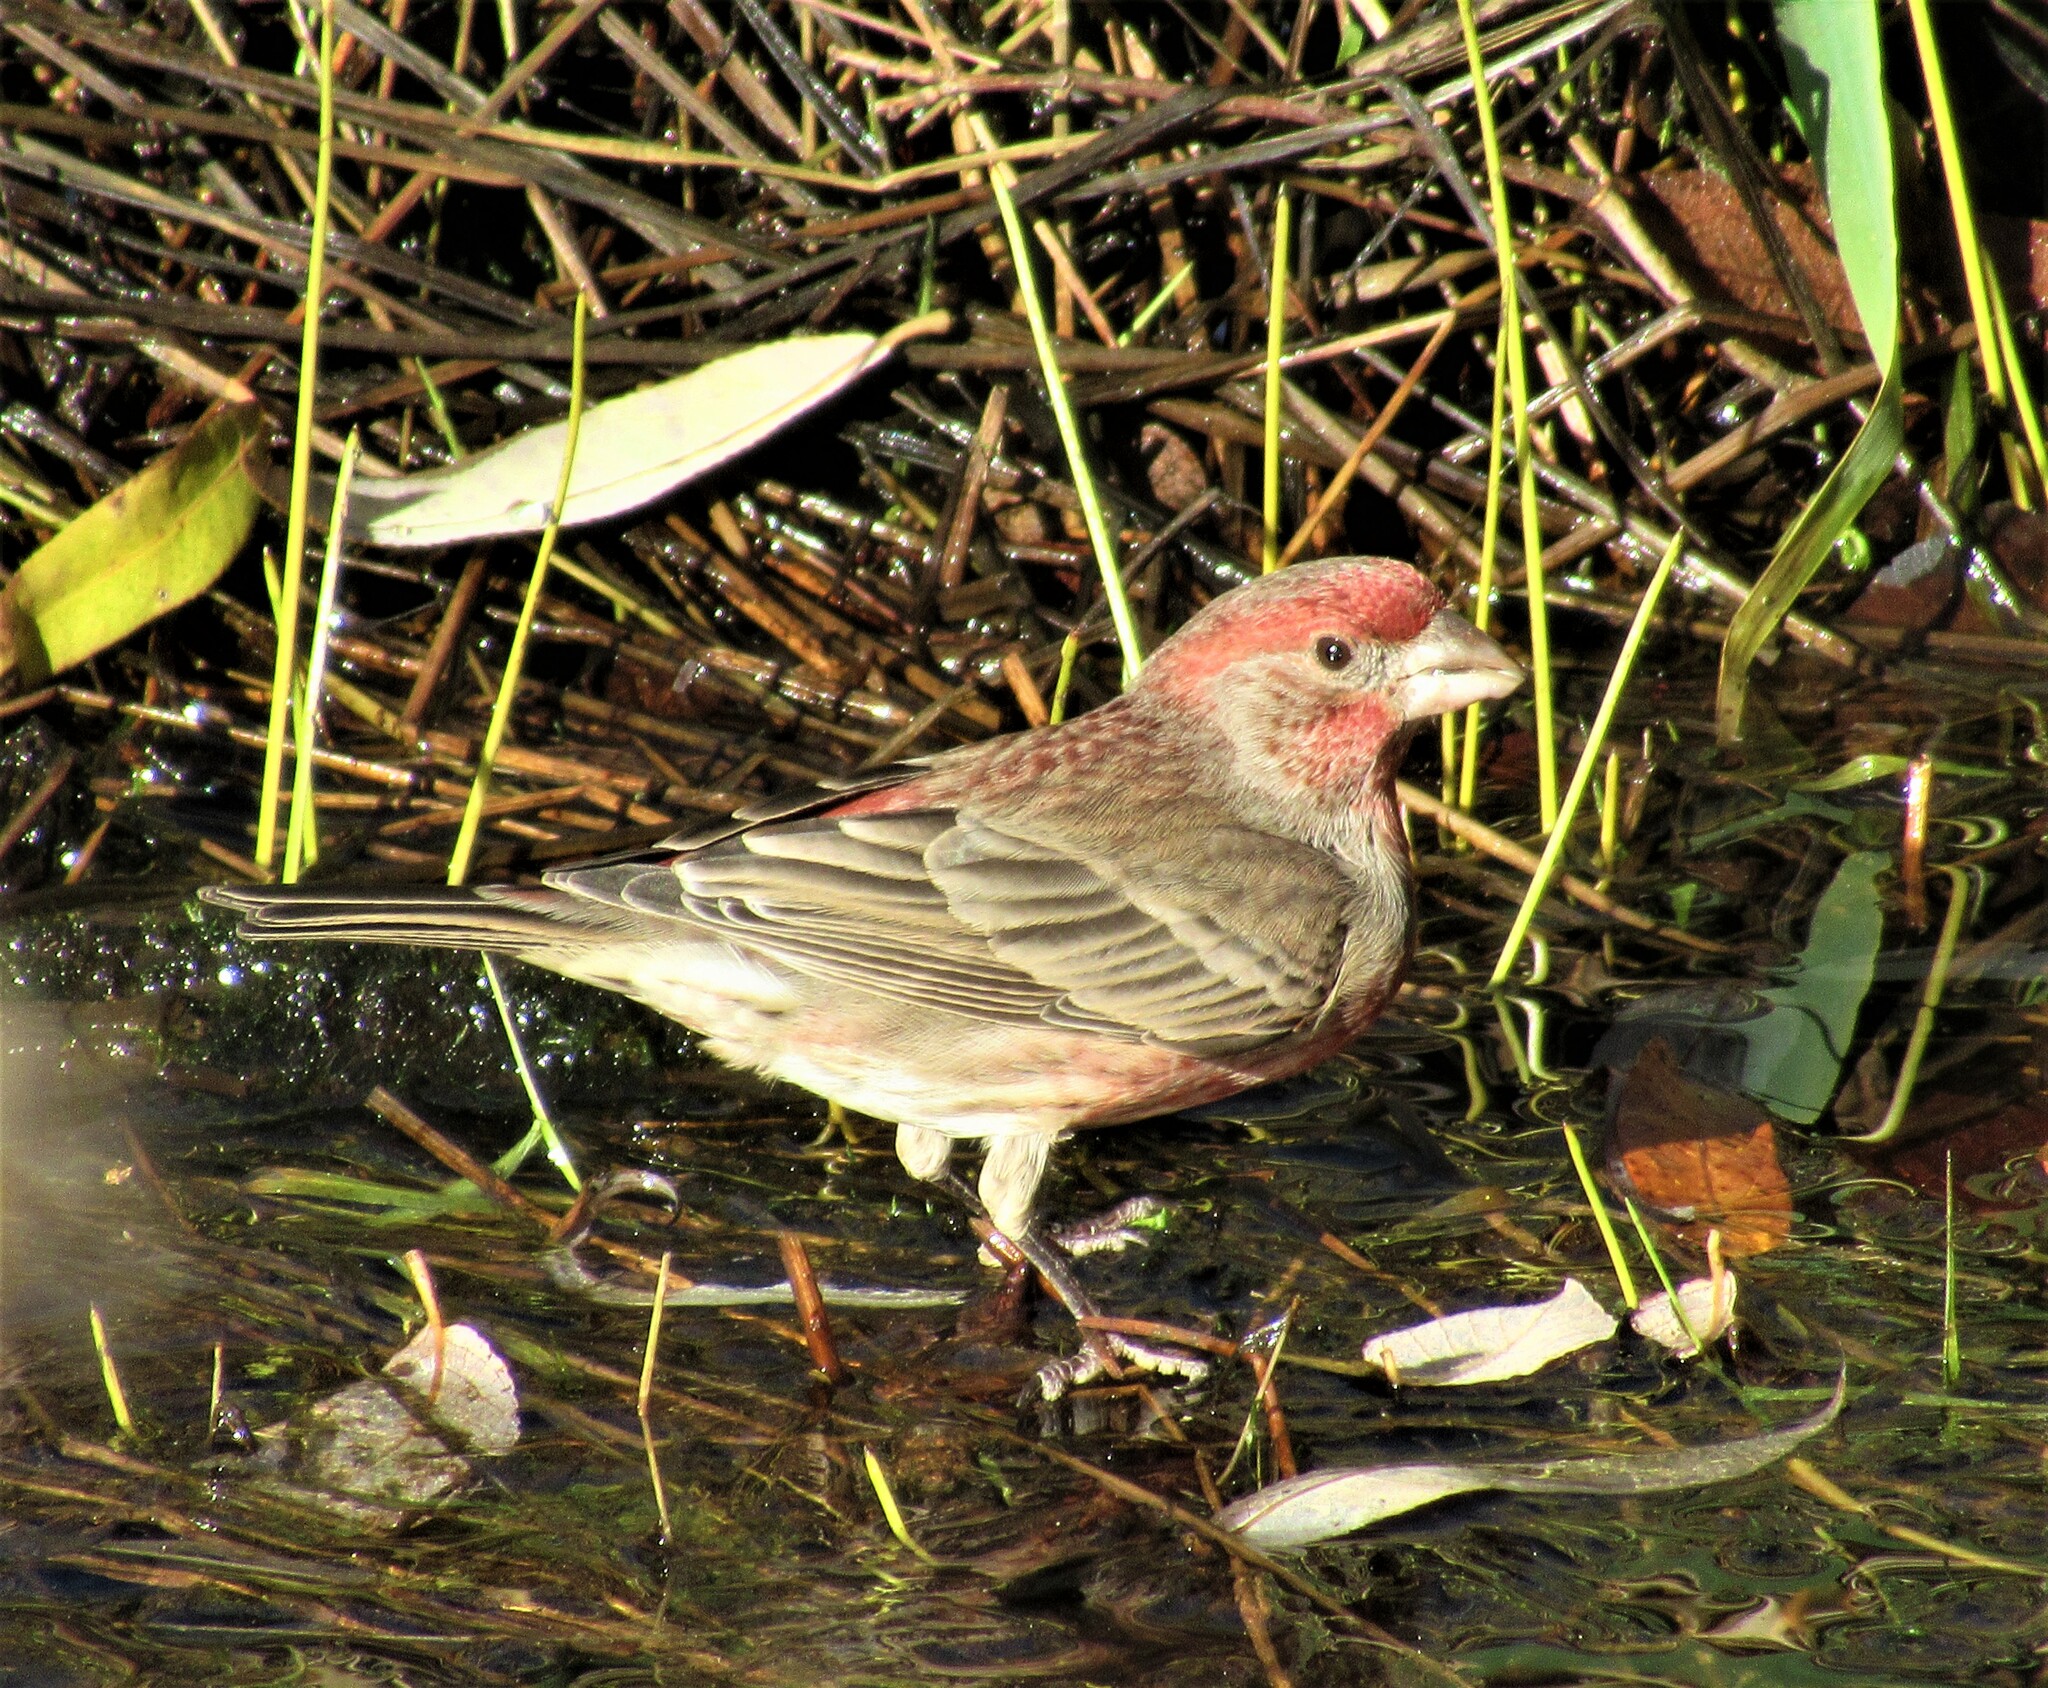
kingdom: Animalia
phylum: Chordata
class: Aves
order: Passeriformes
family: Fringillidae
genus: Haemorhous
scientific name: Haemorhous mexicanus
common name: House finch
